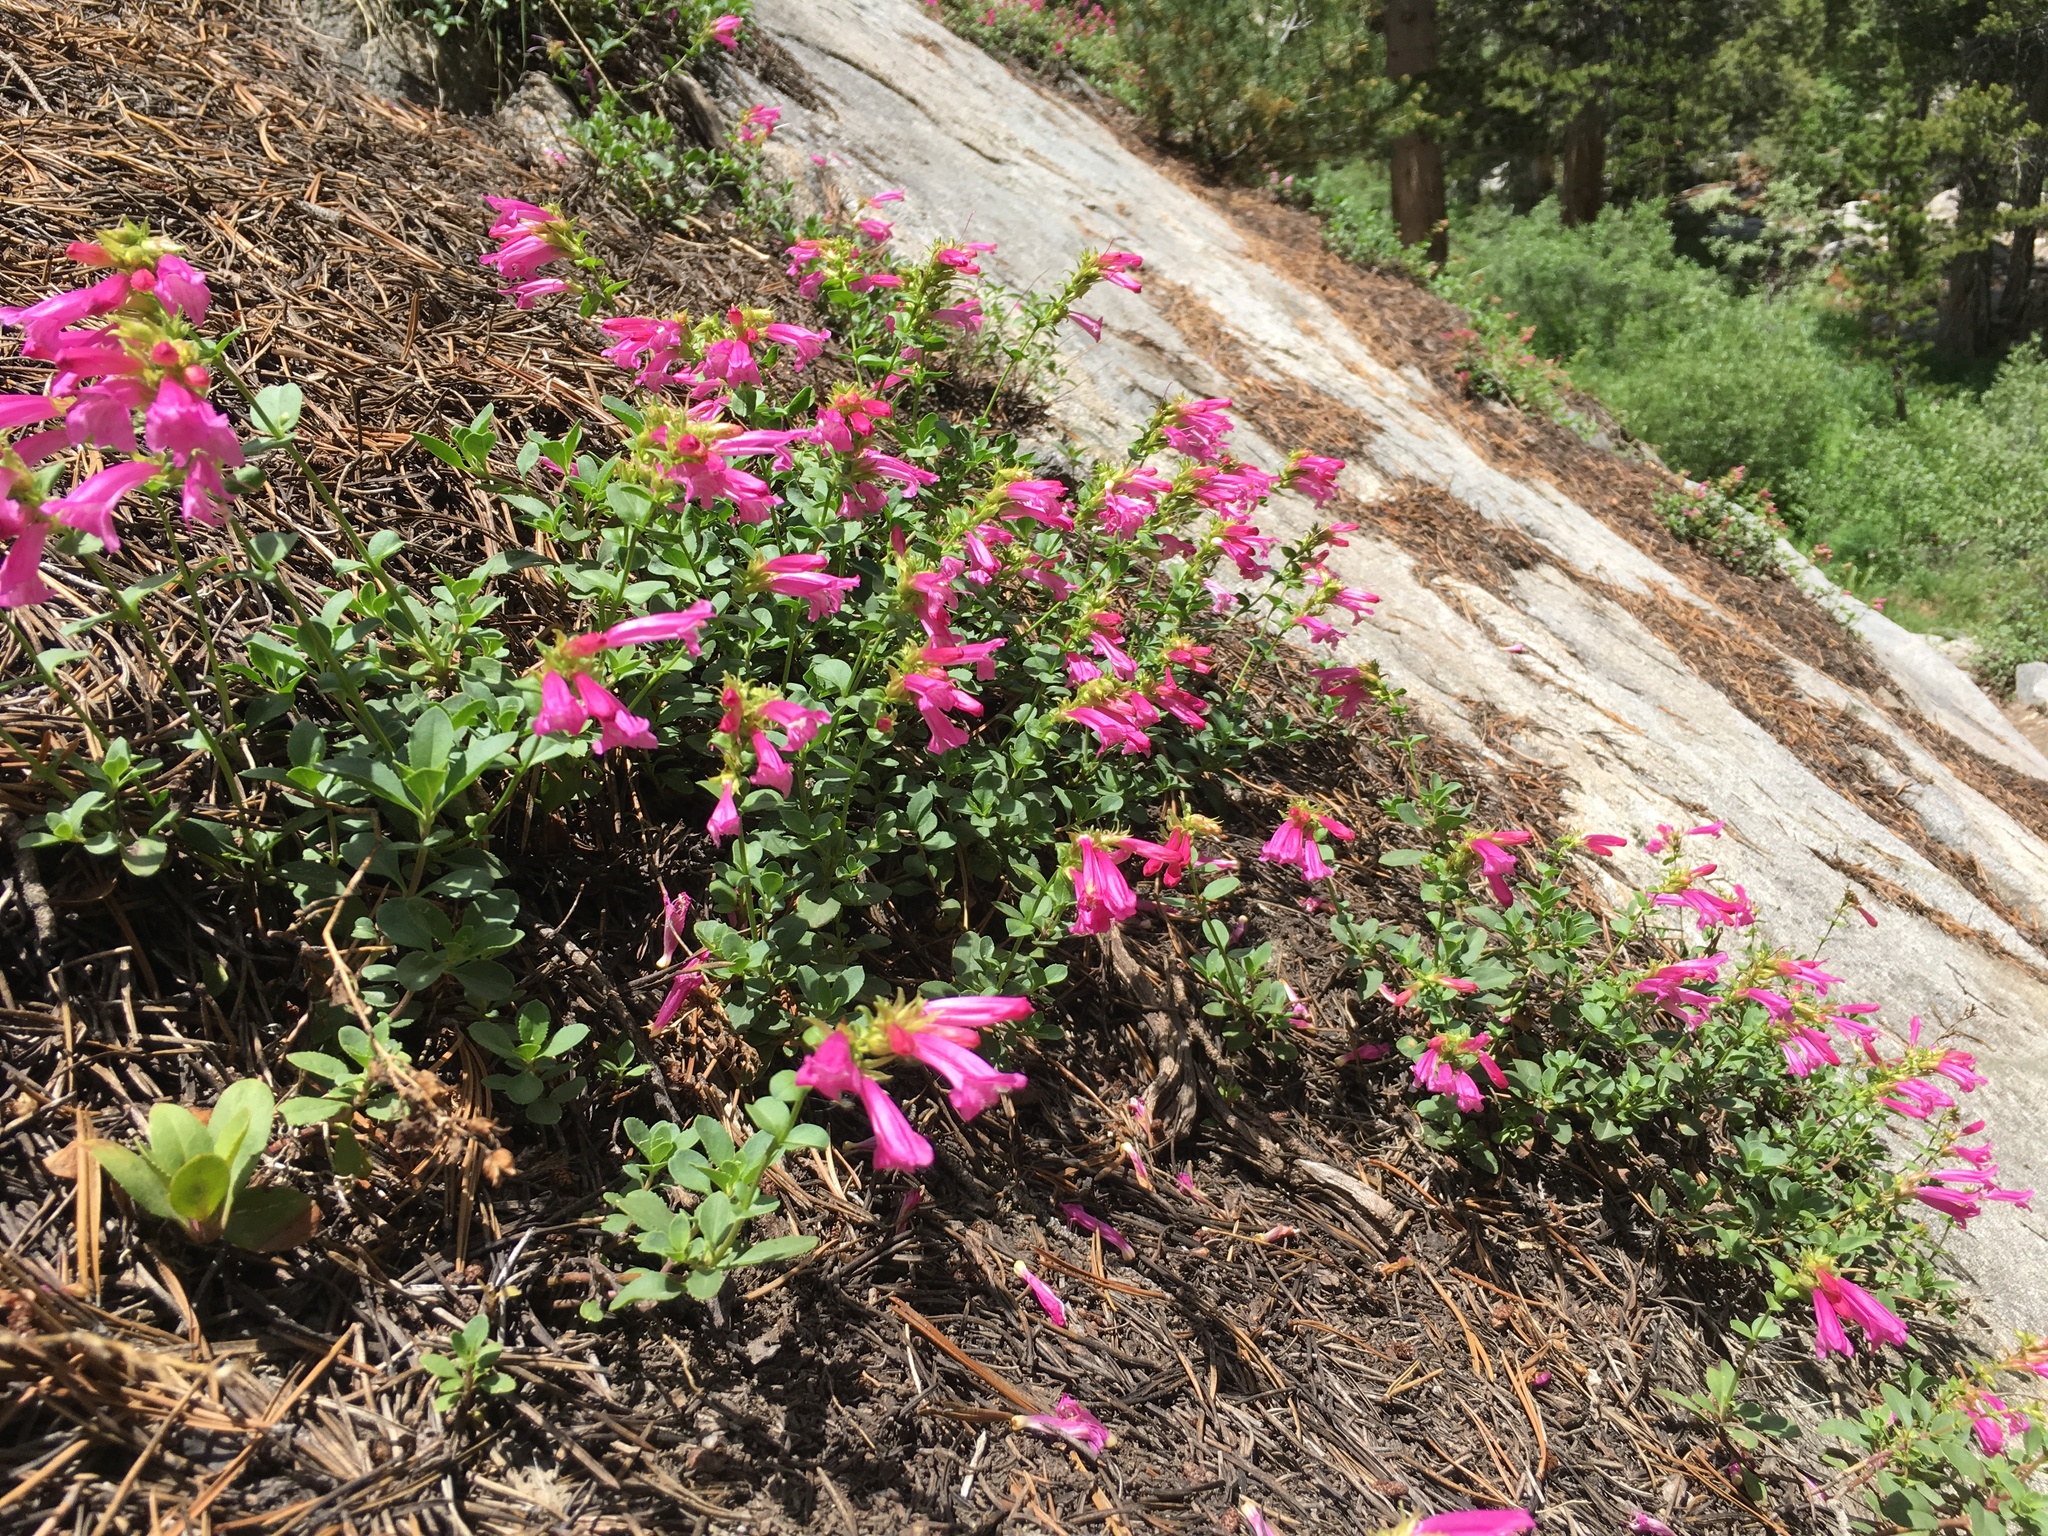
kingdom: Plantae
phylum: Tracheophyta
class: Magnoliopsida
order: Lamiales
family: Plantaginaceae
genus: Penstemon
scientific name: Penstemon newberryi
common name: Mountain-pride
